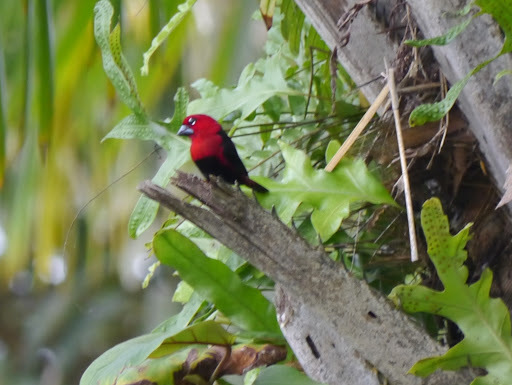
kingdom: Animalia
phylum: Chordata
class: Aves
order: Passeriformes
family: Estrildidae
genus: Pyrenestes
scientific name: Pyrenestes ostrinus
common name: Black-bellied seedcracker
